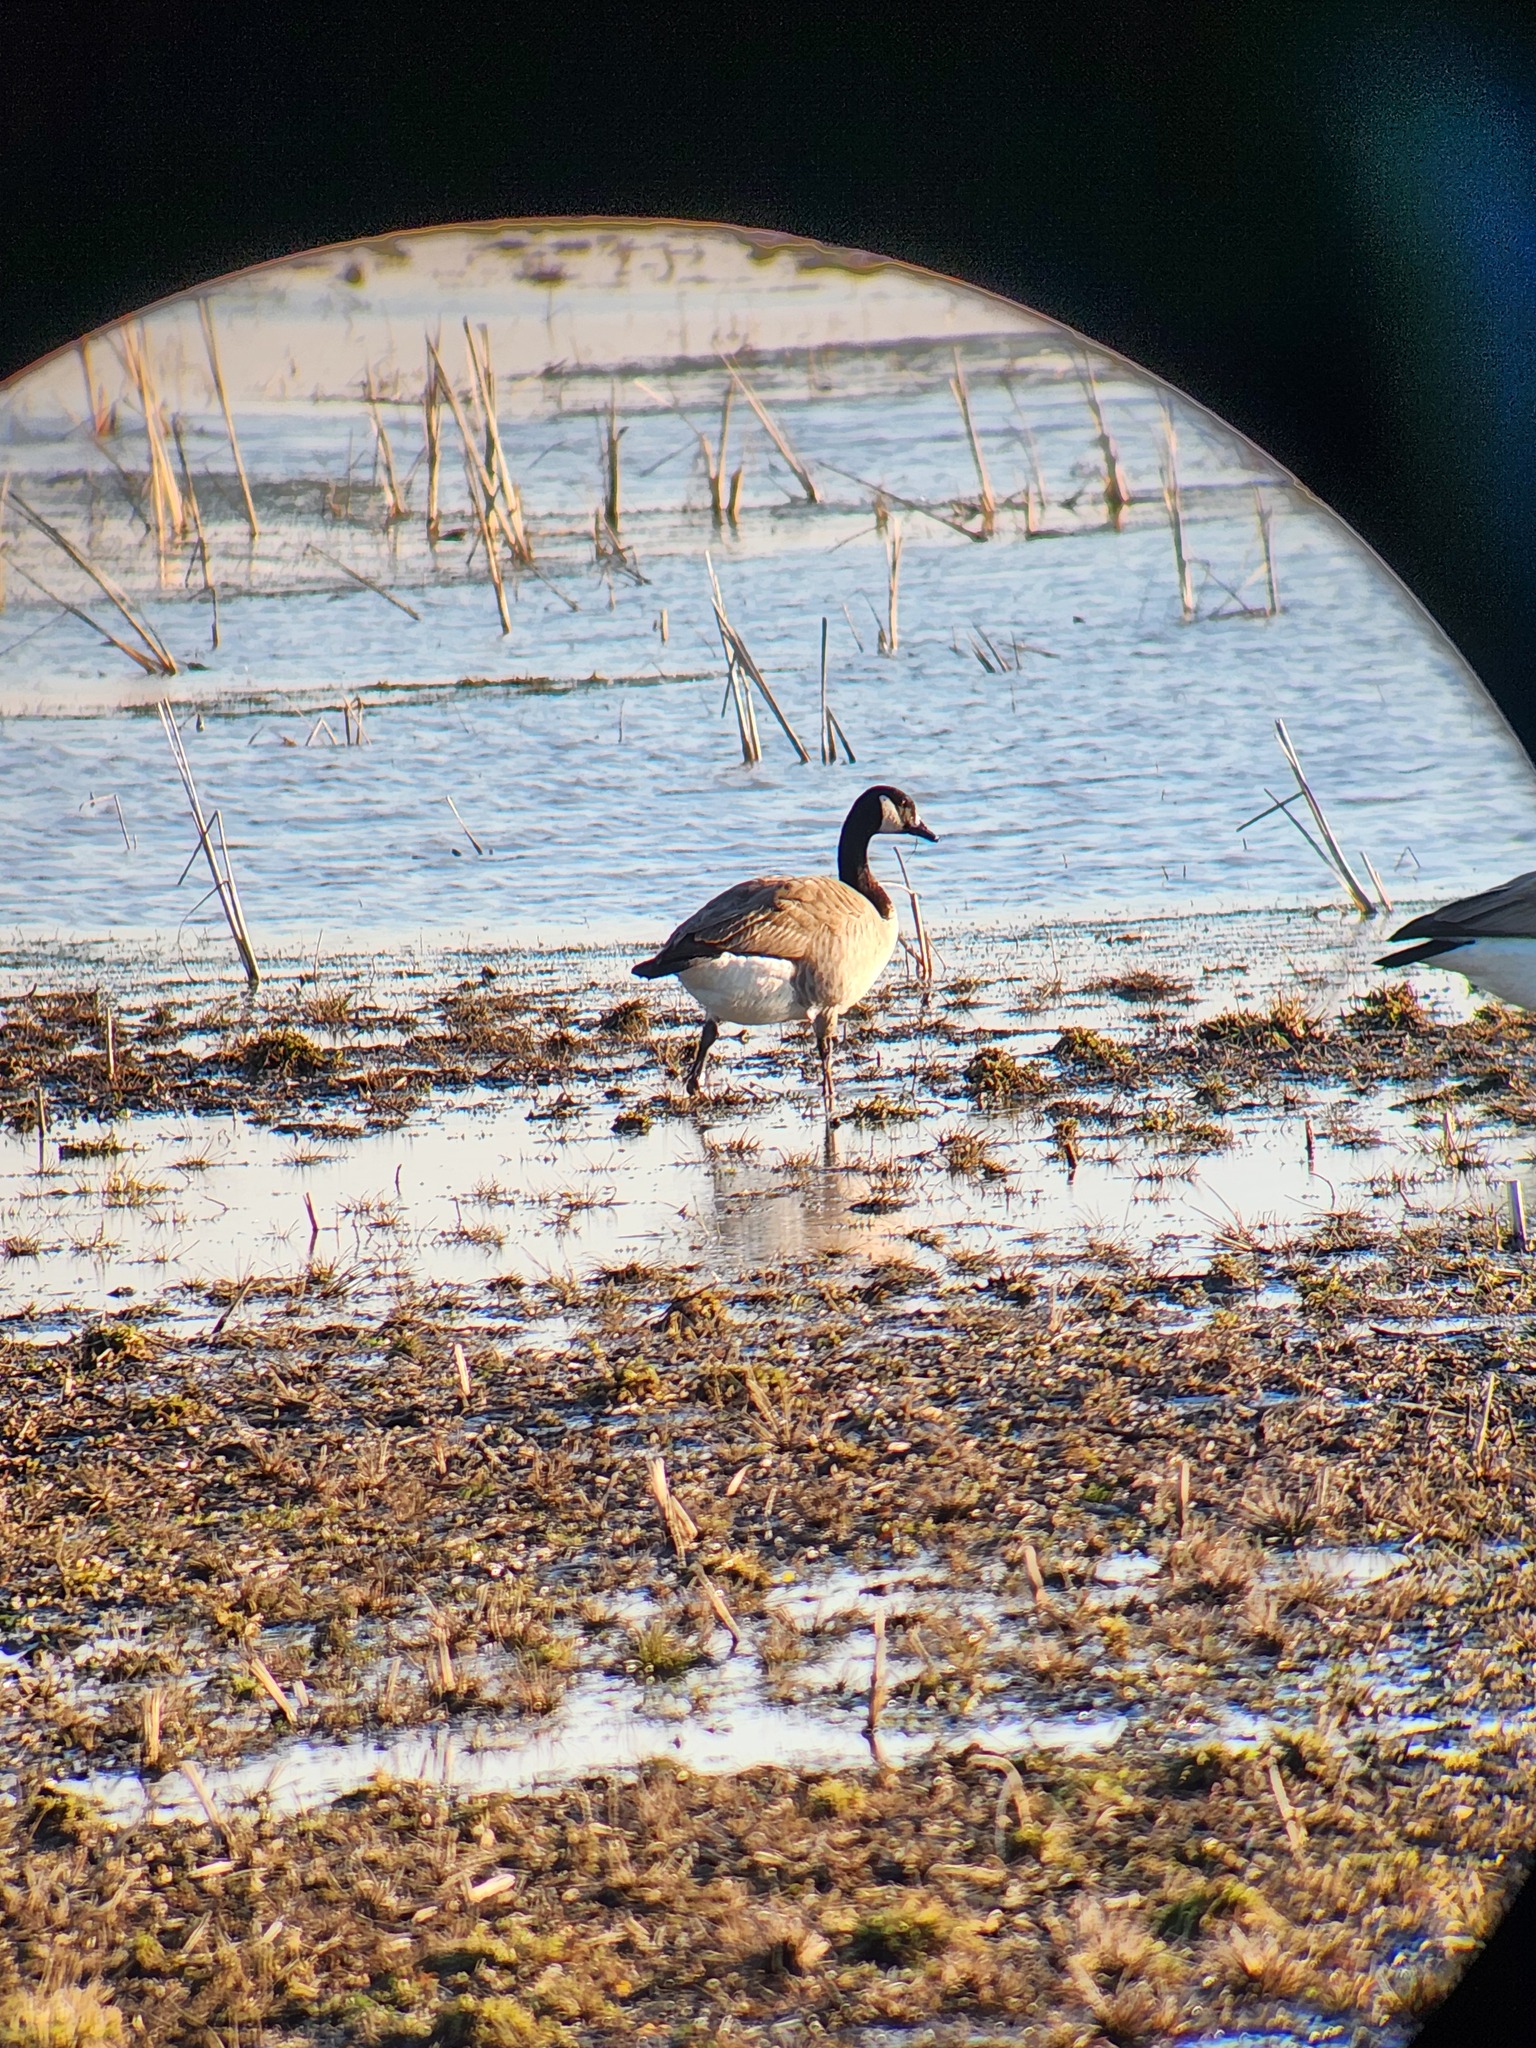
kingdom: Animalia
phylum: Chordata
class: Aves
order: Anseriformes
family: Anatidae
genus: Branta
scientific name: Branta canadensis
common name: Canada goose
